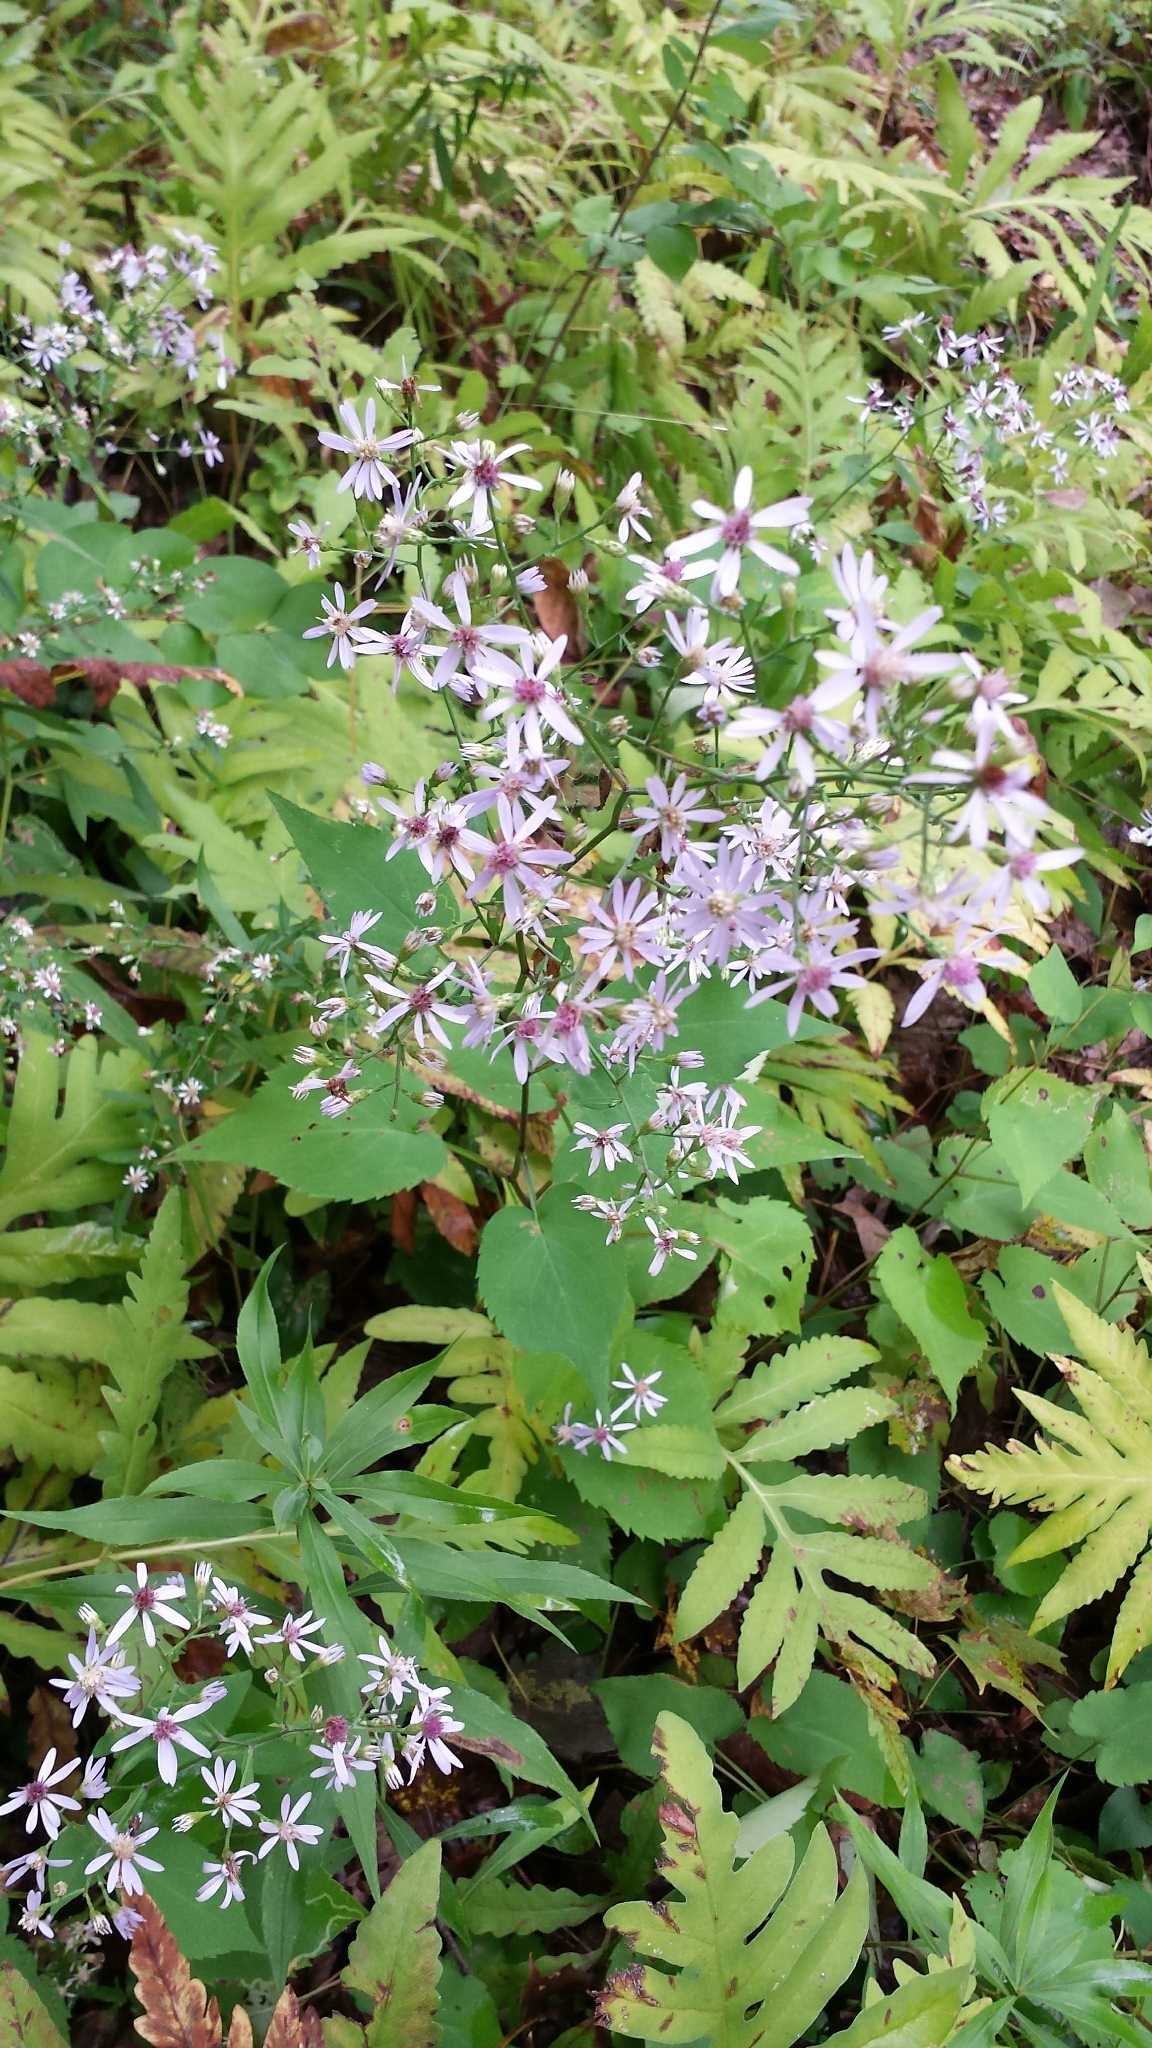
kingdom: Plantae
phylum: Tracheophyta
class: Magnoliopsida
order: Asterales
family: Asteraceae
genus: Symphyotrichum
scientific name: Symphyotrichum cordifolium
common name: Beeweed
